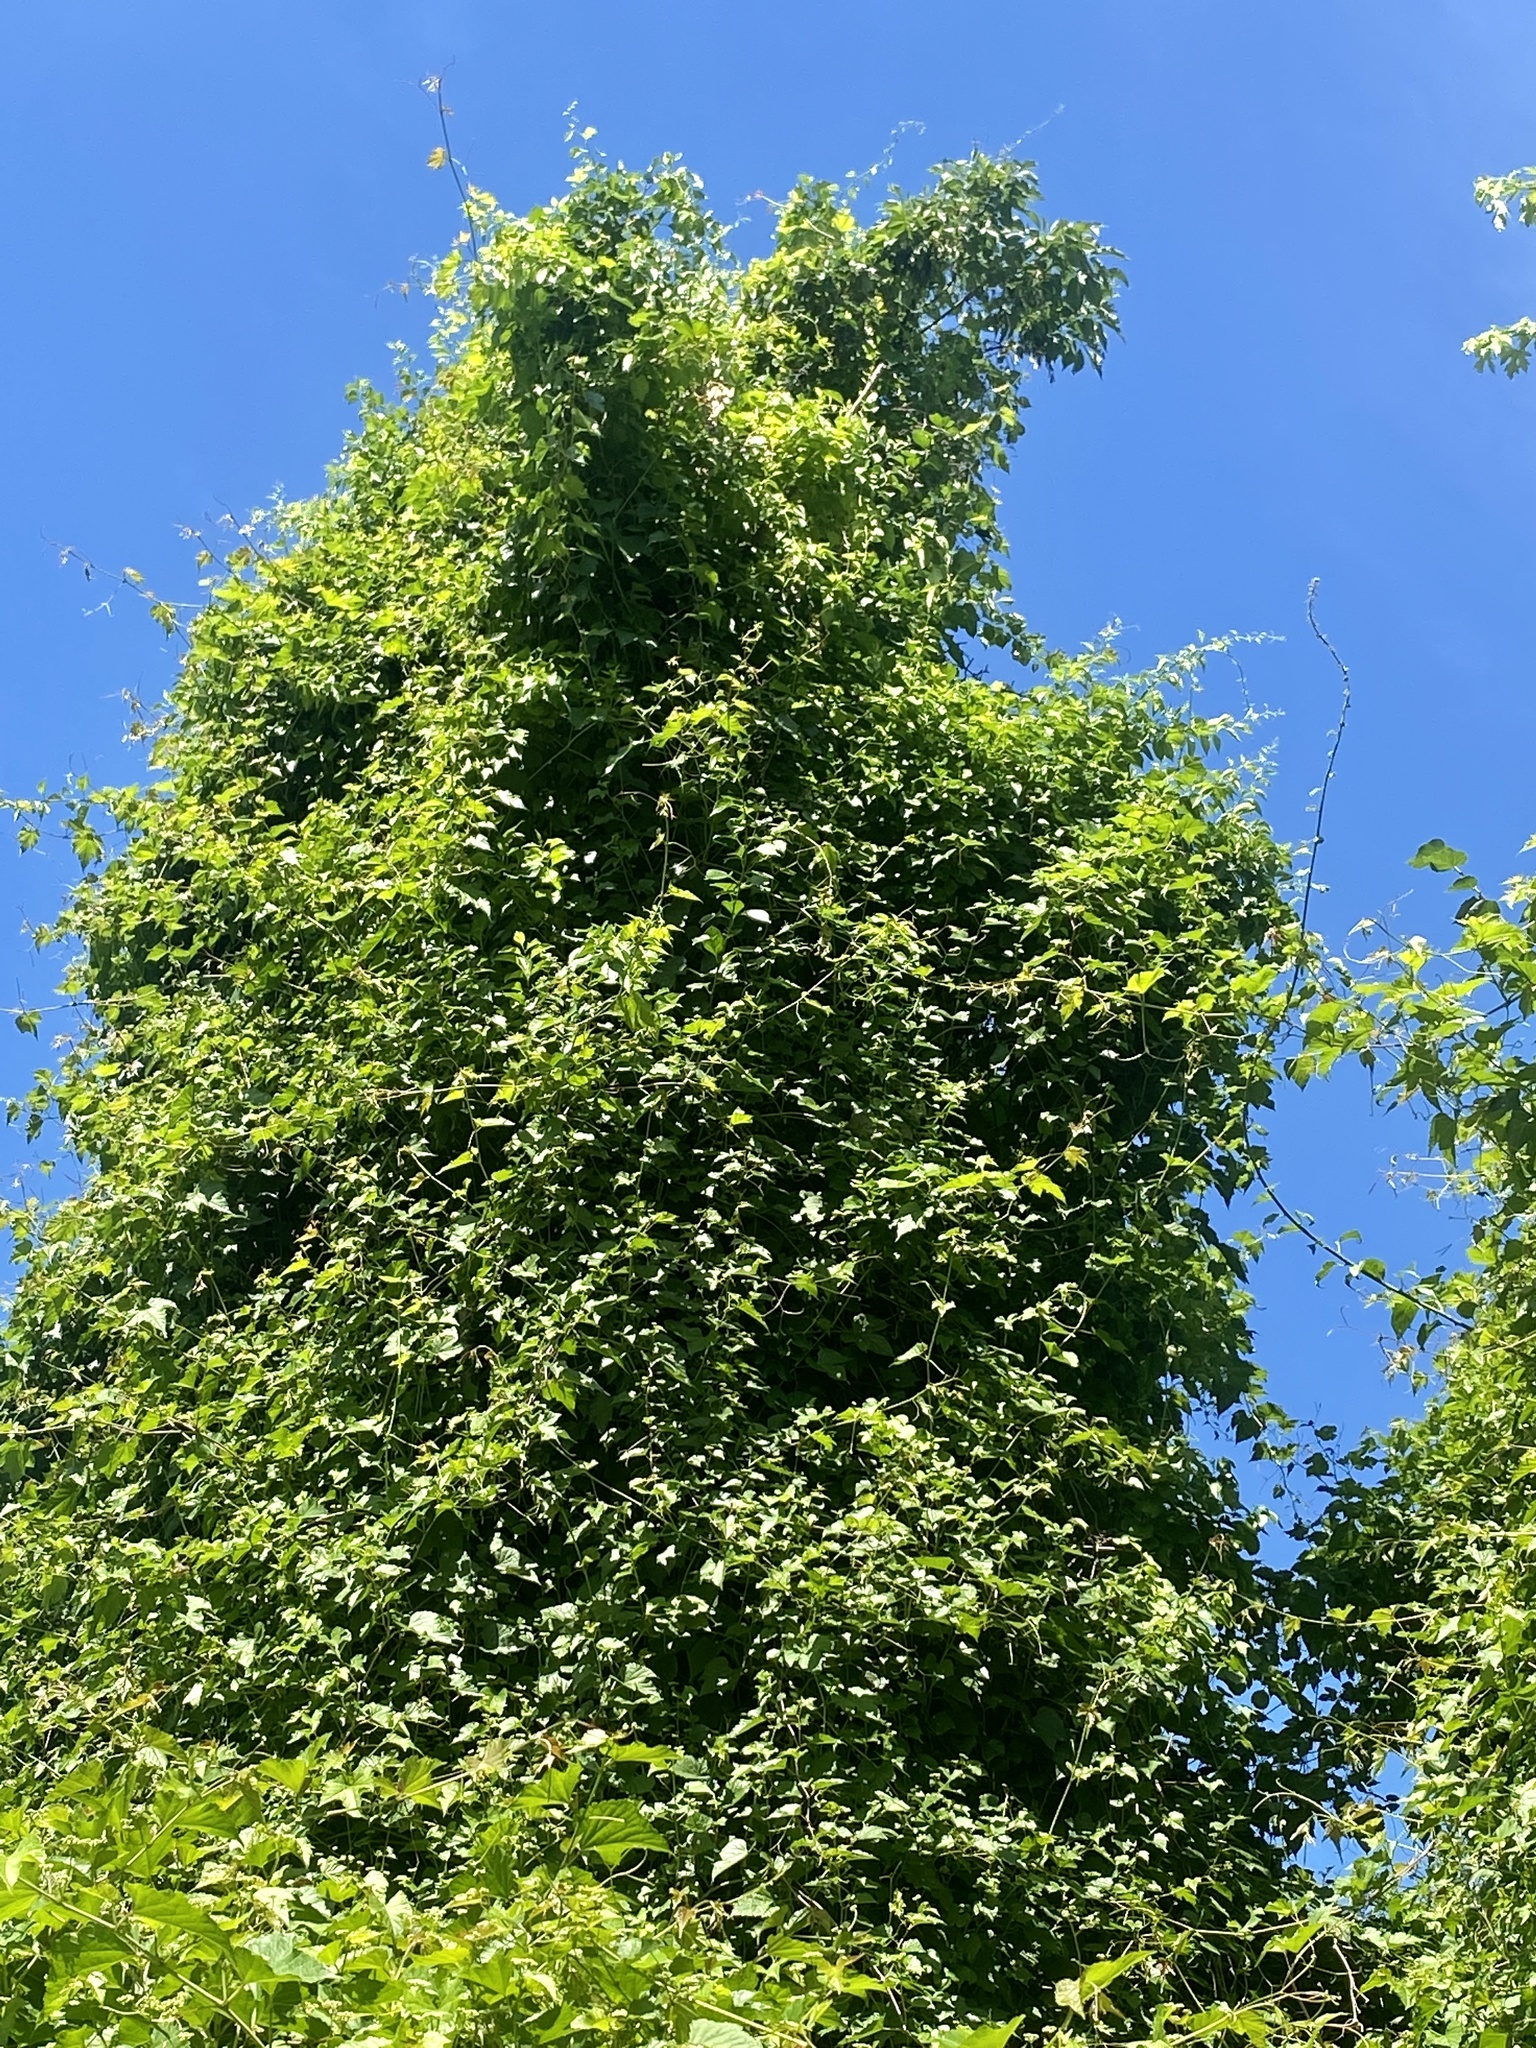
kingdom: Plantae
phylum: Tracheophyta
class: Magnoliopsida
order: Vitales
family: Vitaceae
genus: Ampelopsis
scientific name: Ampelopsis glandulosa
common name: Amur peppervine
